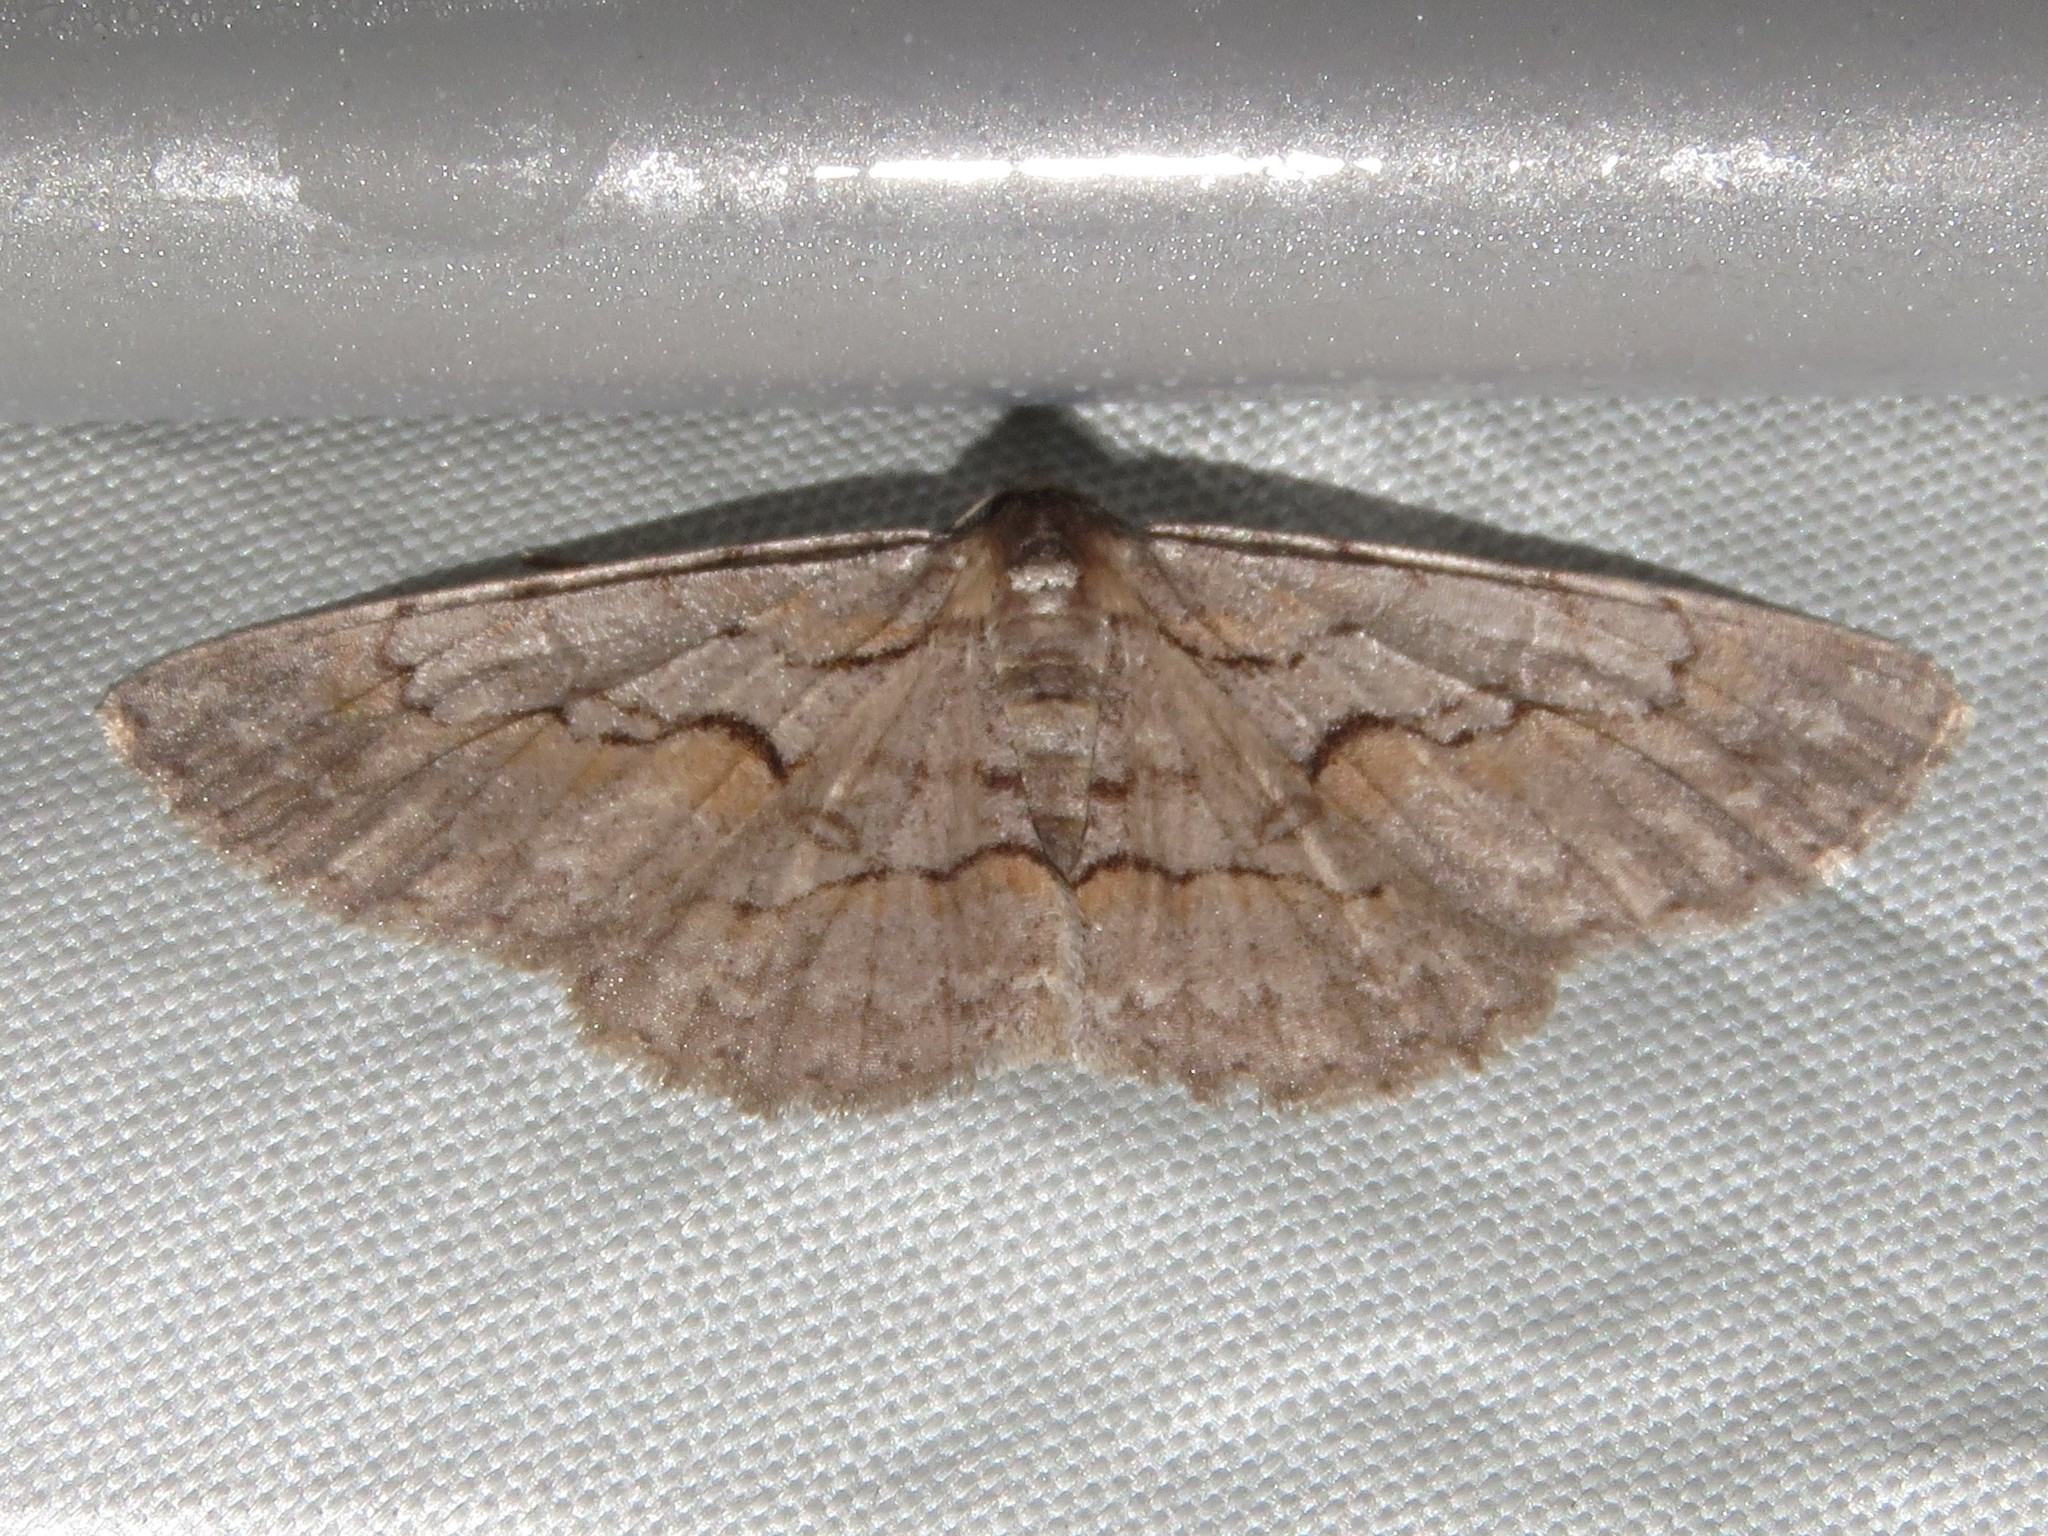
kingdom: Animalia
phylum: Arthropoda
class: Insecta
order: Lepidoptera
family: Geometridae
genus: Iridopsis
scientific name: Iridopsis vellivolata
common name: Large purplish gray
